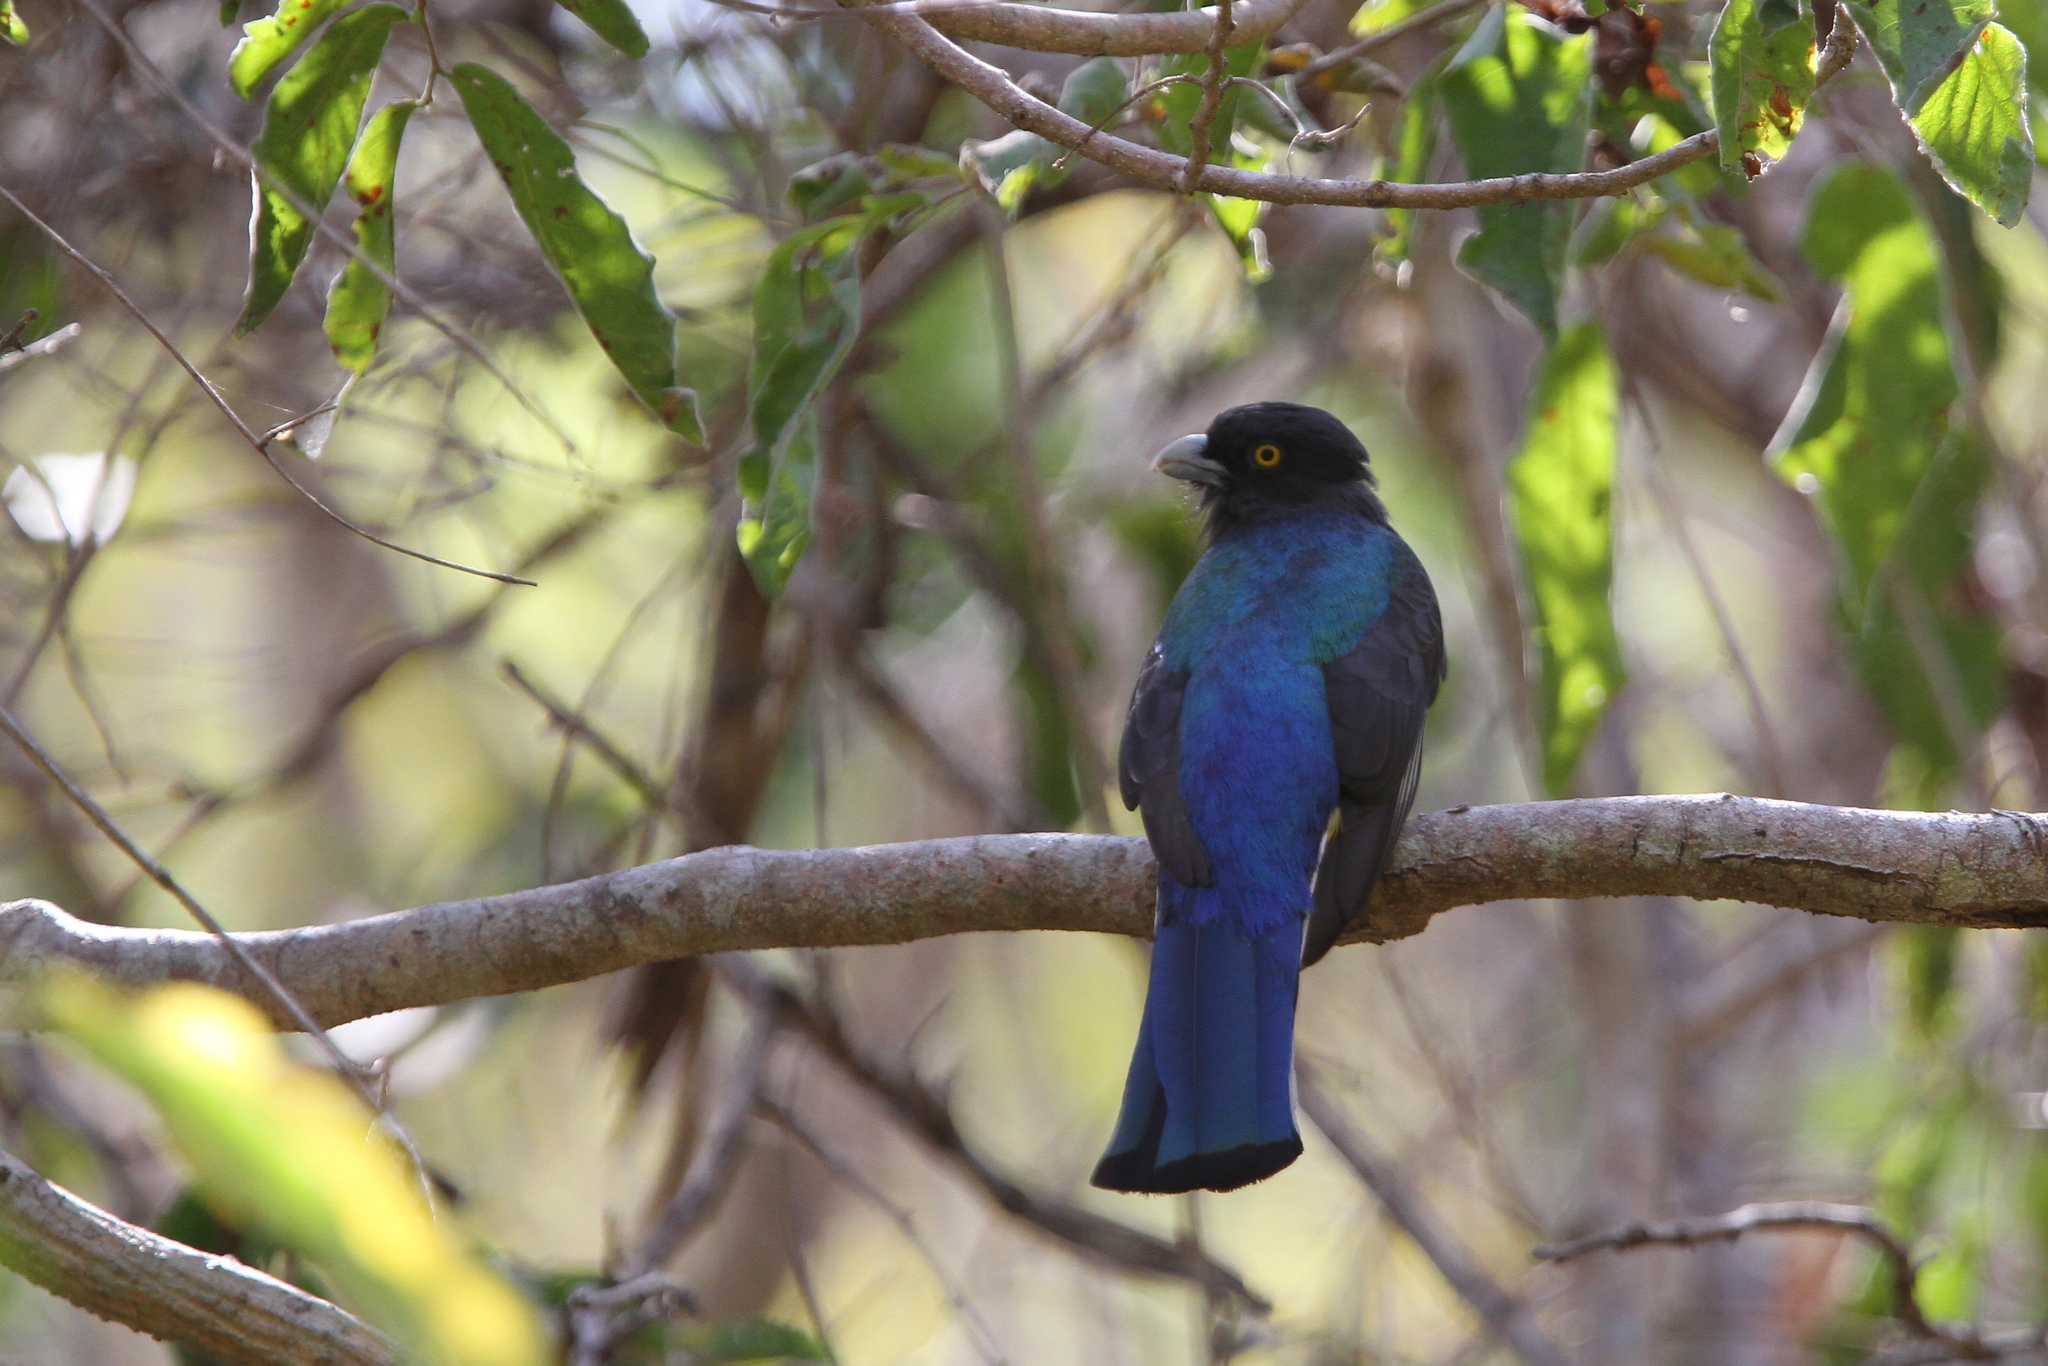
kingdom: Animalia
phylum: Chordata
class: Aves
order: Trogoniformes
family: Trogonidae
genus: Trogon
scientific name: Trogon citreolus
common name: Citreoline trogon
